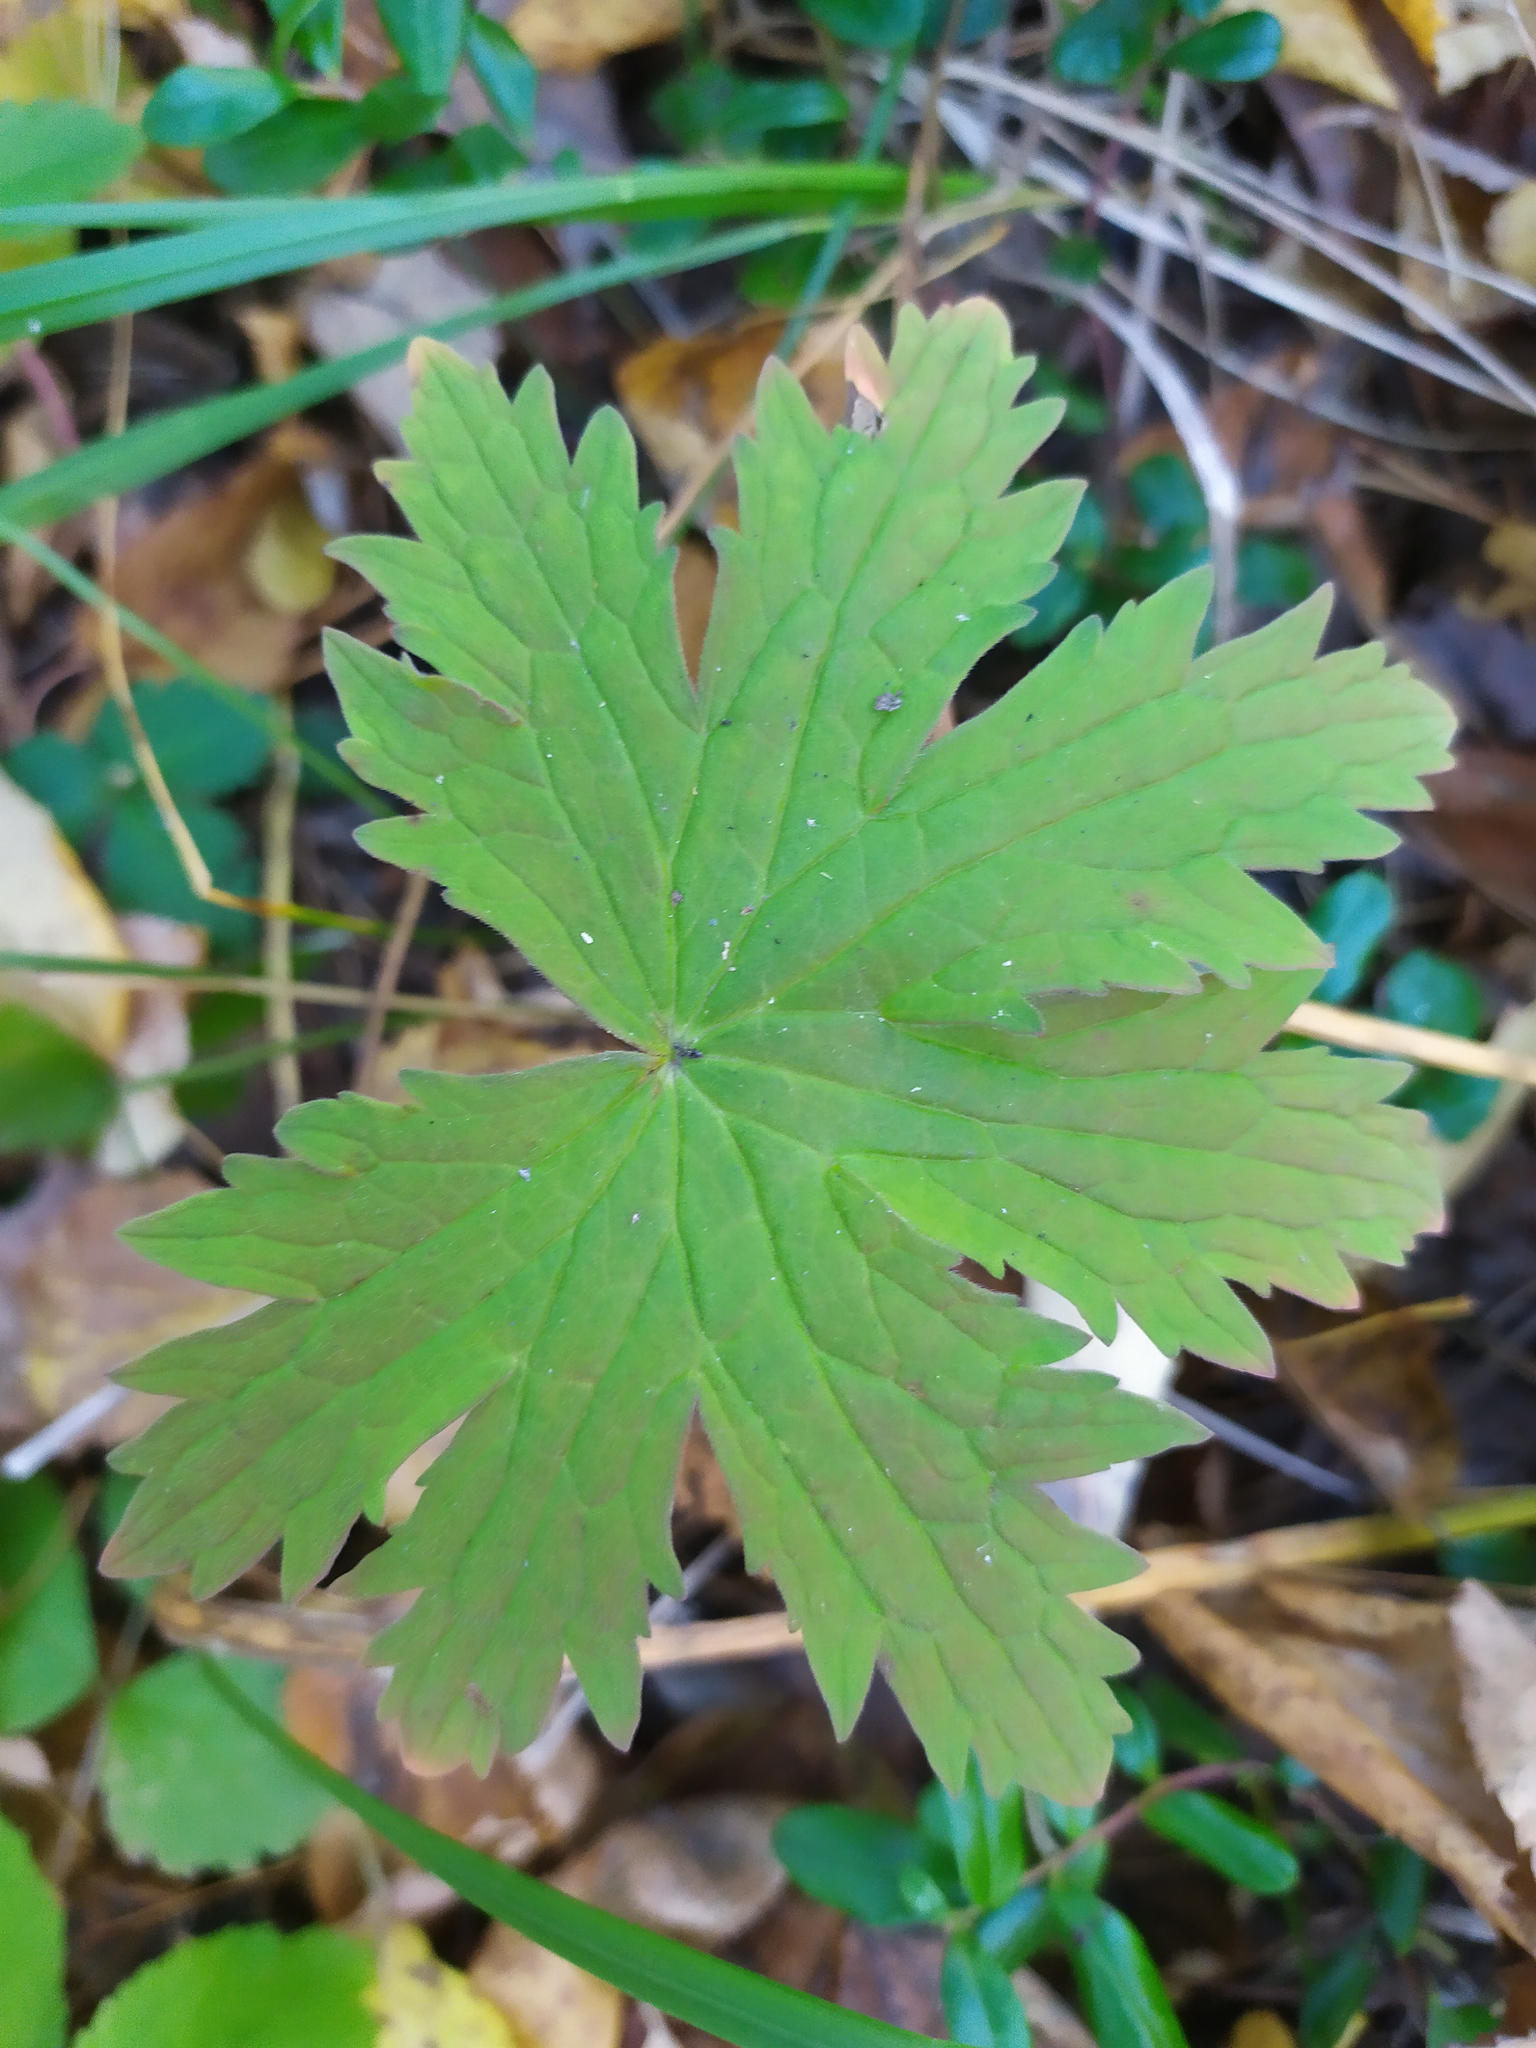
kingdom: Plantae
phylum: Tracheophyta
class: Magnoliopsida
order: Geraniales
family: Geraniaceae
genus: Geranium
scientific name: Geranium sylvaticum
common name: Wood crane's-bill
